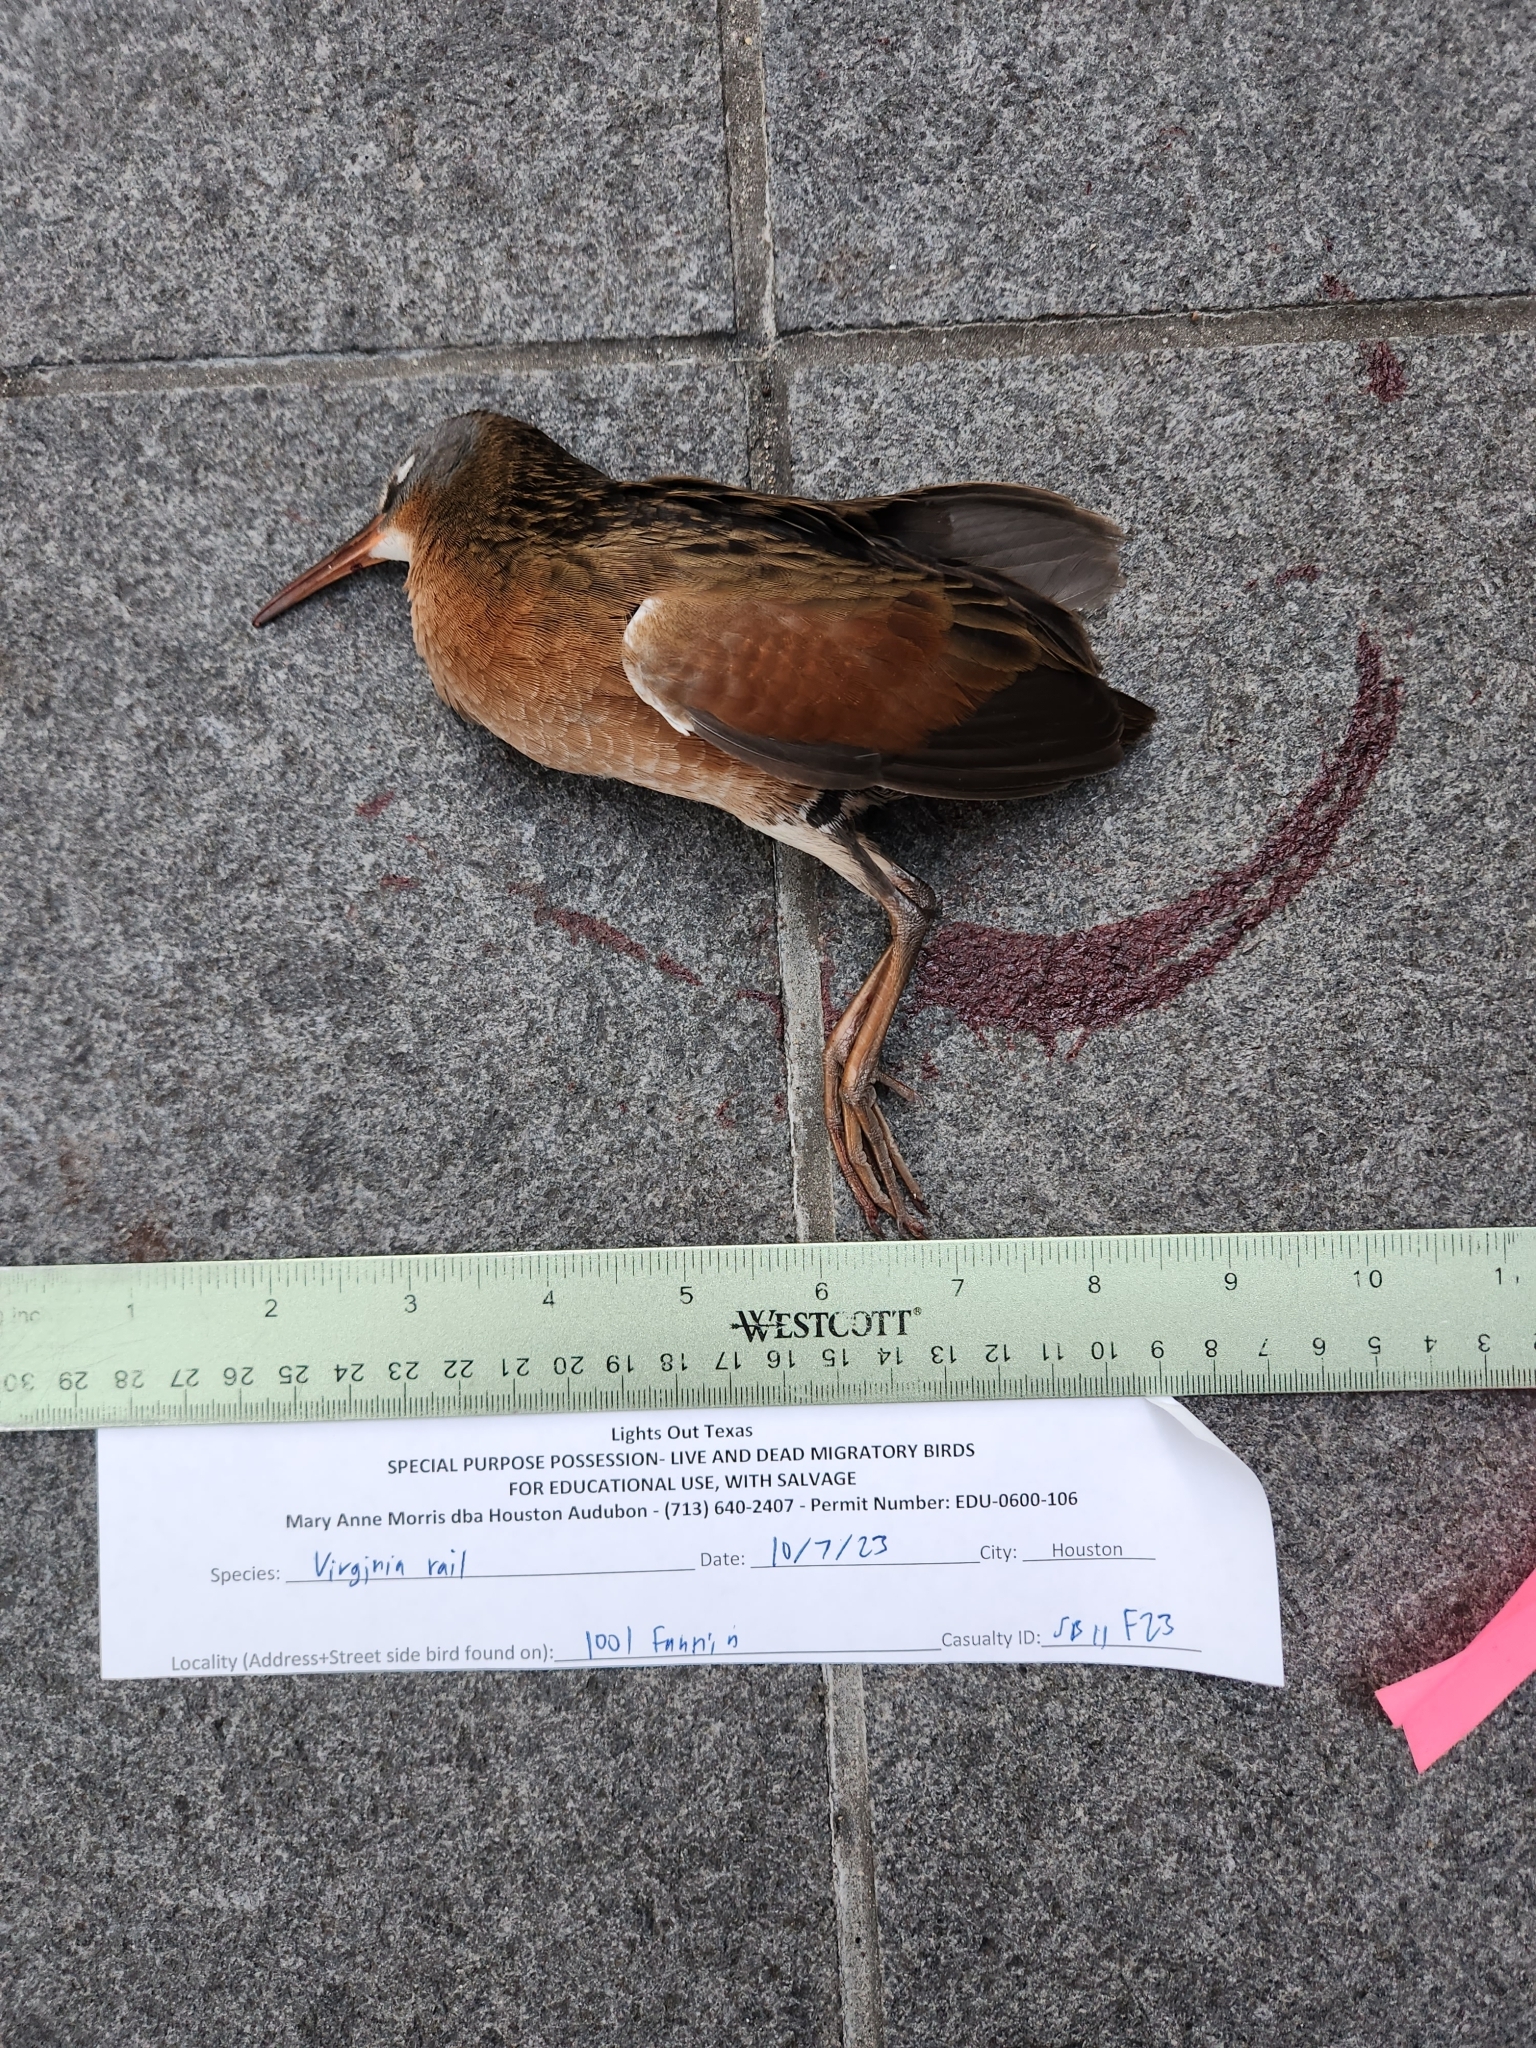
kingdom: Animalia
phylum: Chordata
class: Aves
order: Gruiformes
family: Rallidae
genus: Rallus
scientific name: Rallus limicola
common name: Virginia rail
